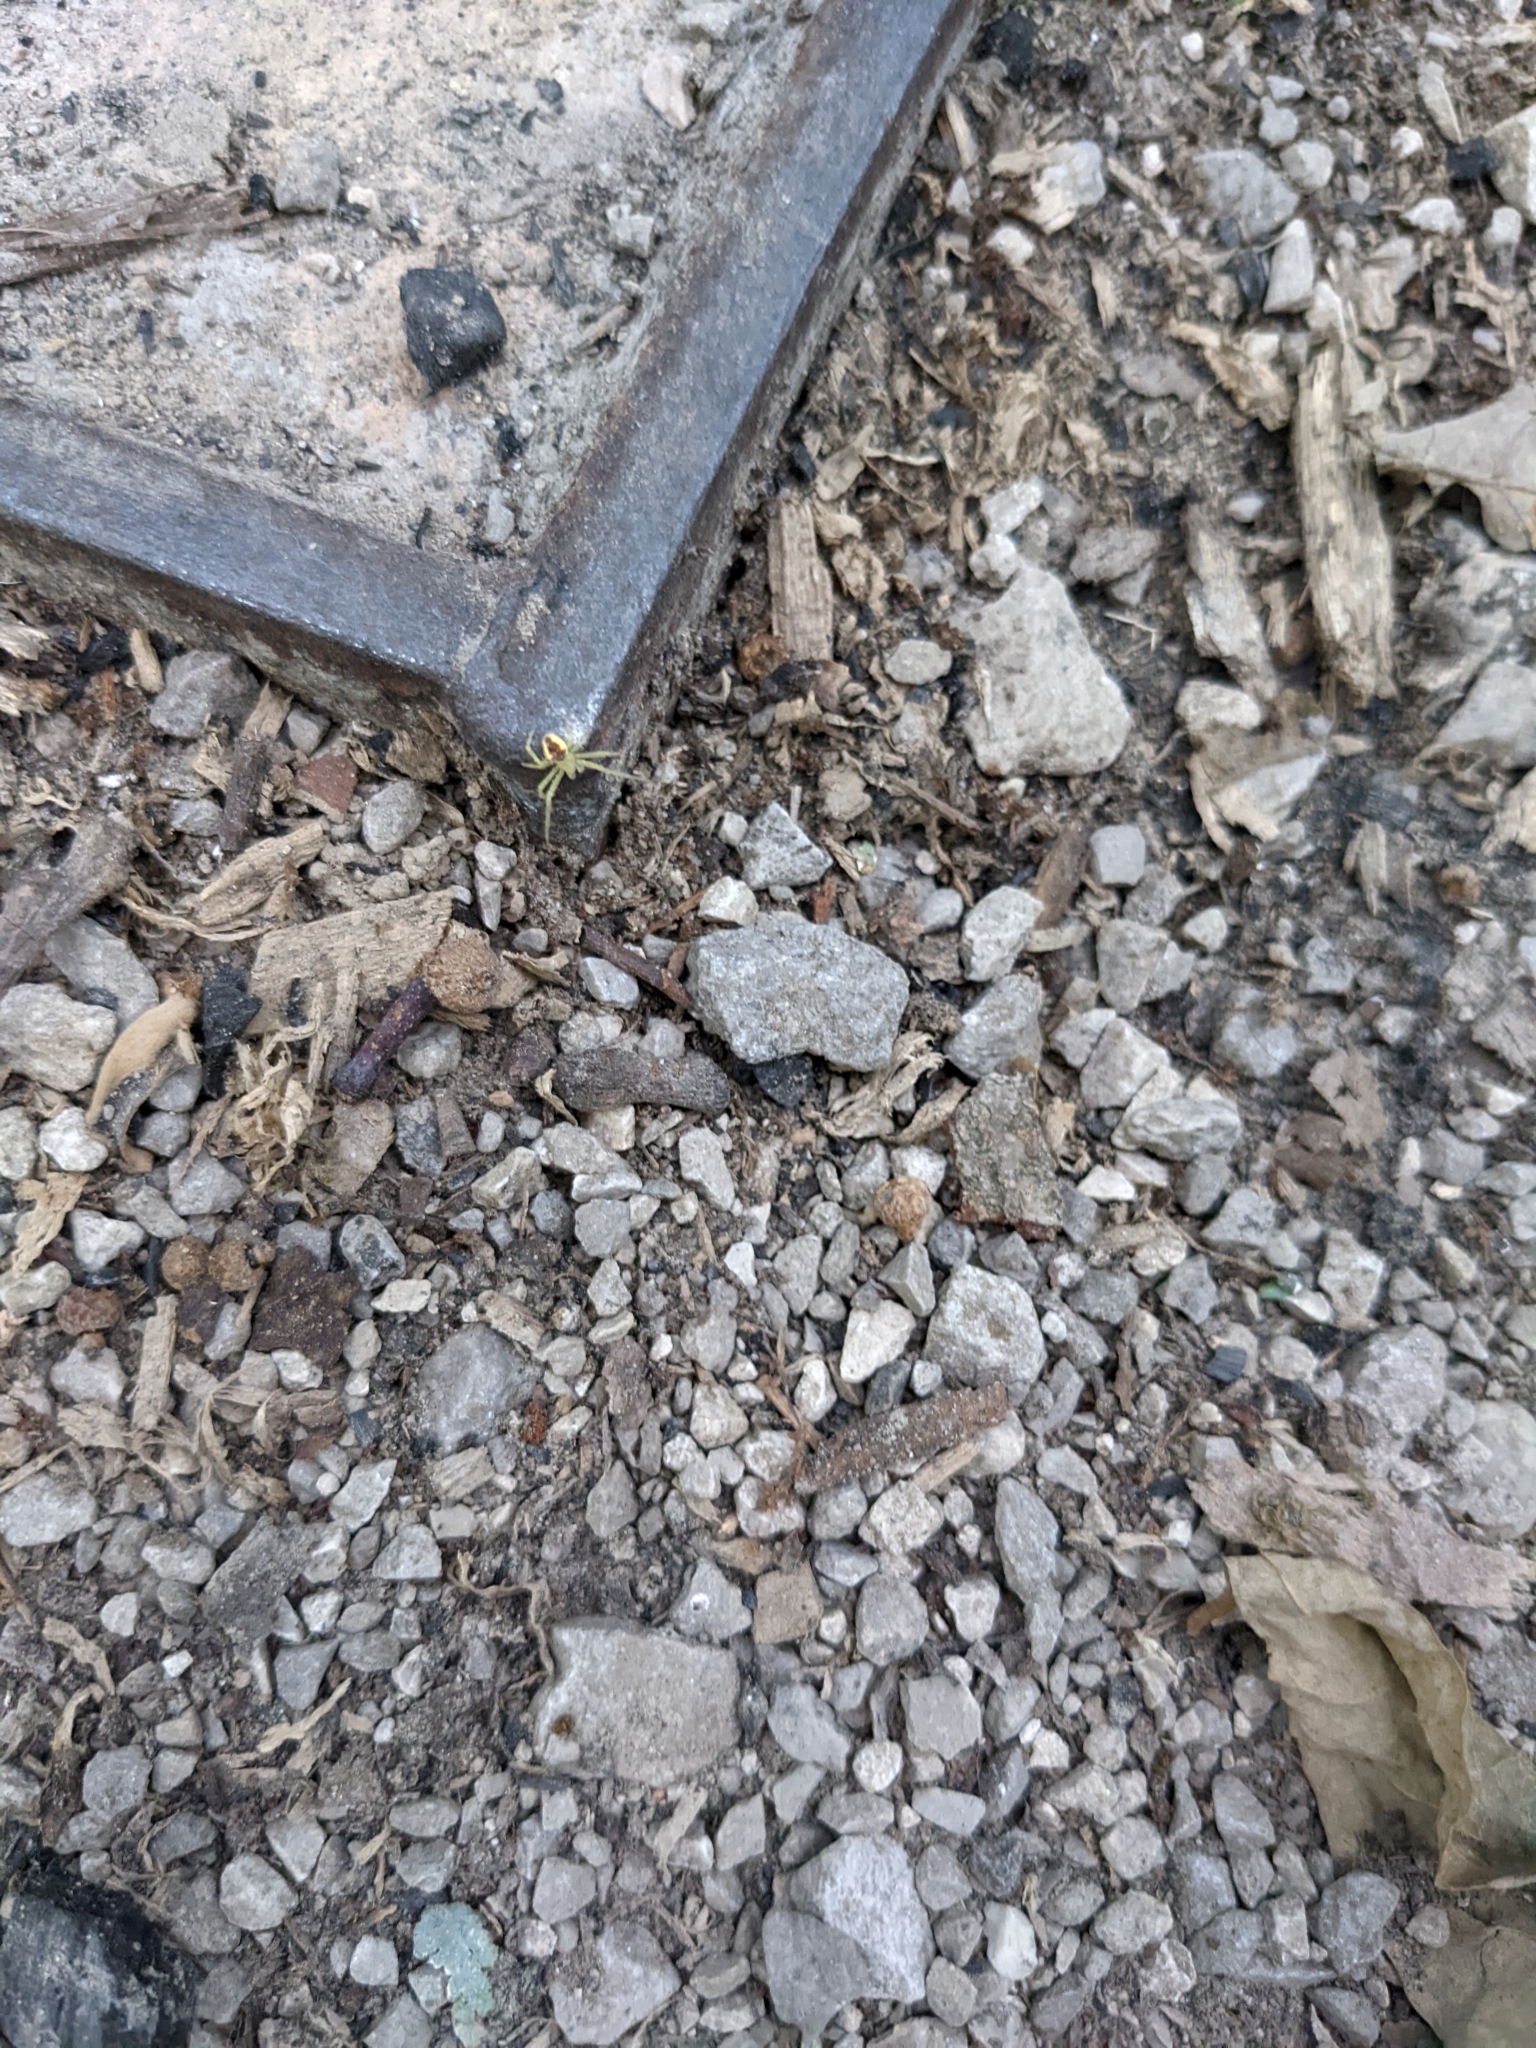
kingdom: Animalia
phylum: Arthropoda
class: Arachnida
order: Araneae
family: Araneidae
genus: Araneus
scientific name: Araneus alboventris
